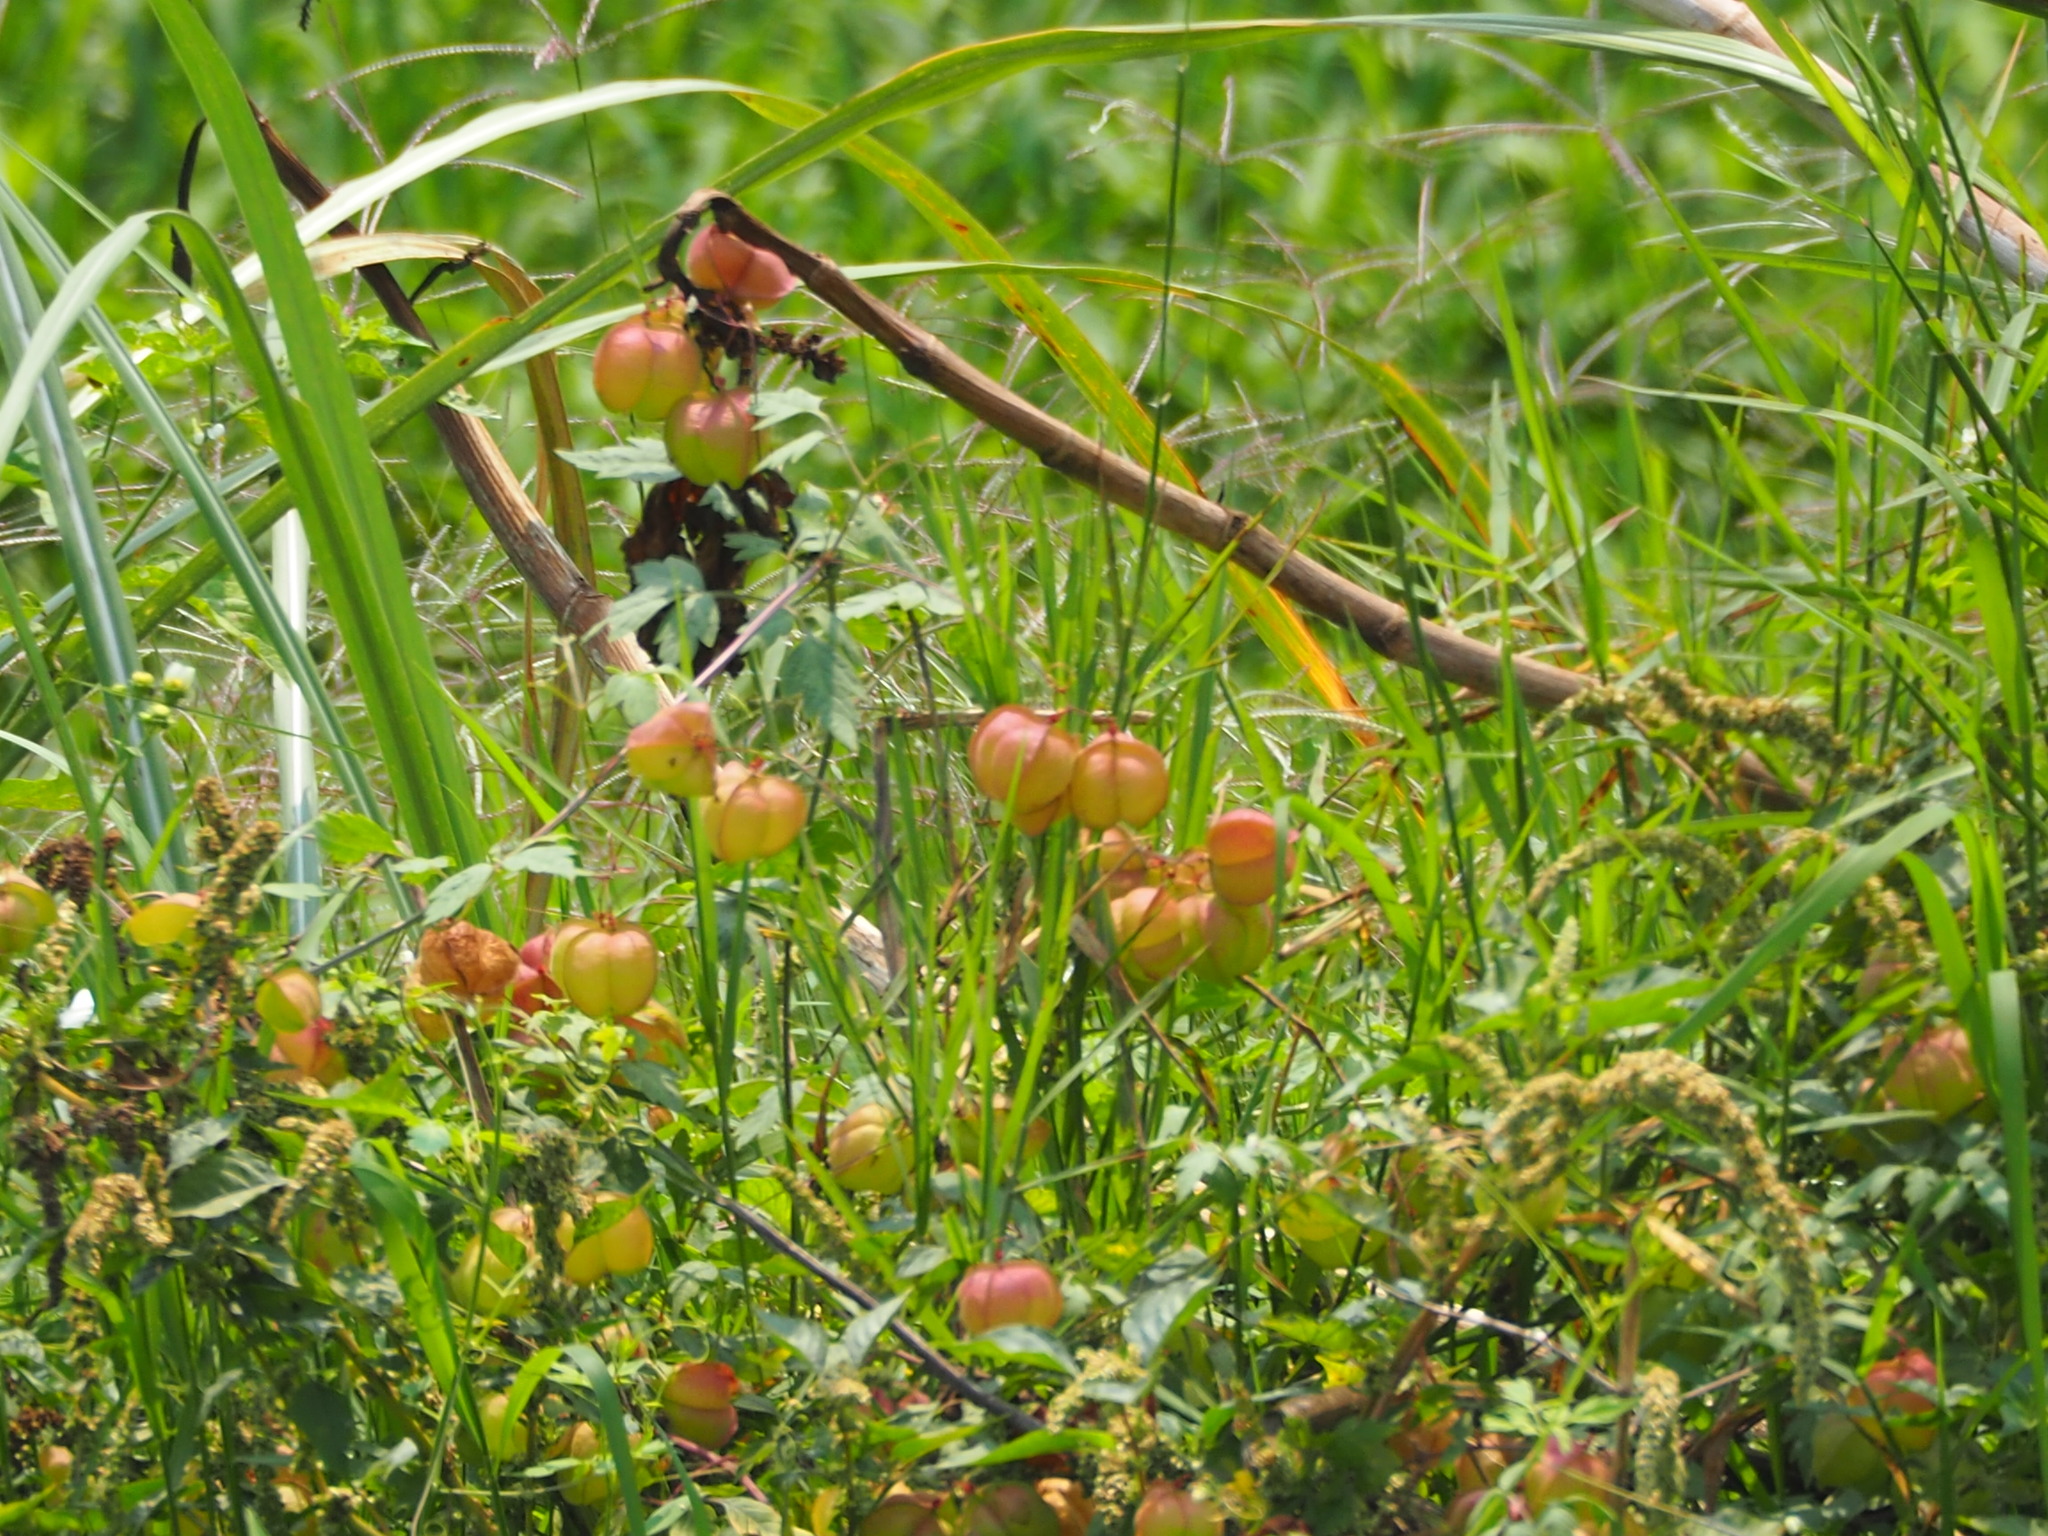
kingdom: Plantae
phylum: Tracheophyta
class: Magnoliopsida
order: Sapindales
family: Sapindaceae
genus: Cardiospermum
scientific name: Cardiospermum halicacabum
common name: Balloon vine
